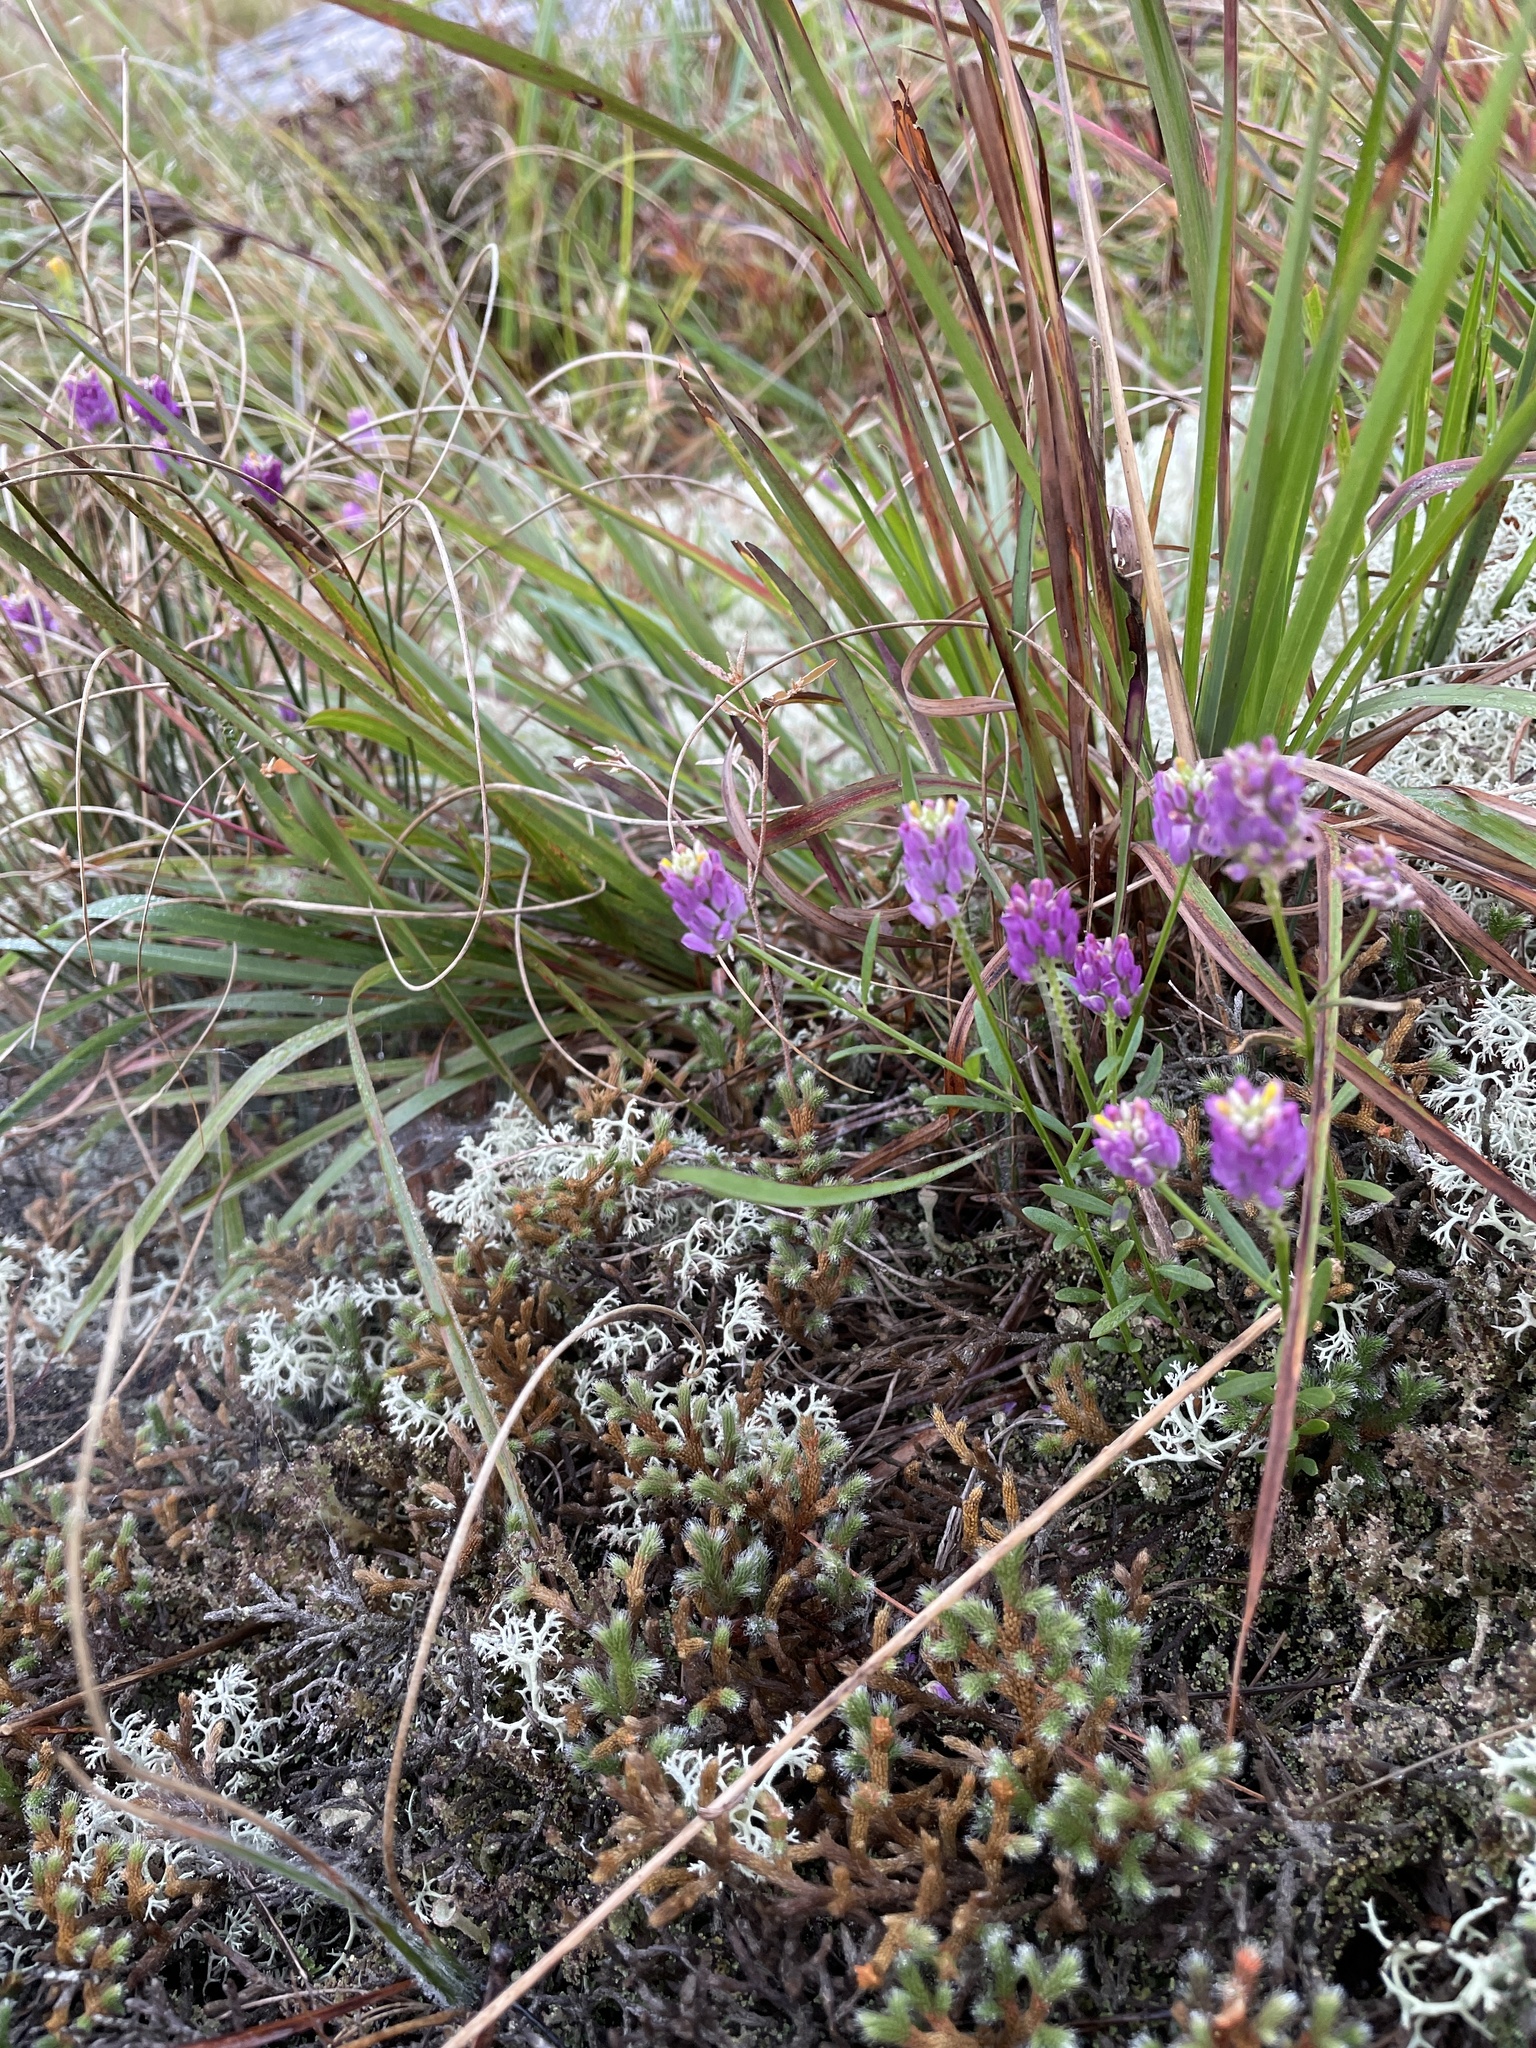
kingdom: Plantae
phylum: Tracheophyta
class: Magnoliopsida
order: Fabales
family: Polygalaceae
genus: Polygala
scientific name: Polygala curtissii
